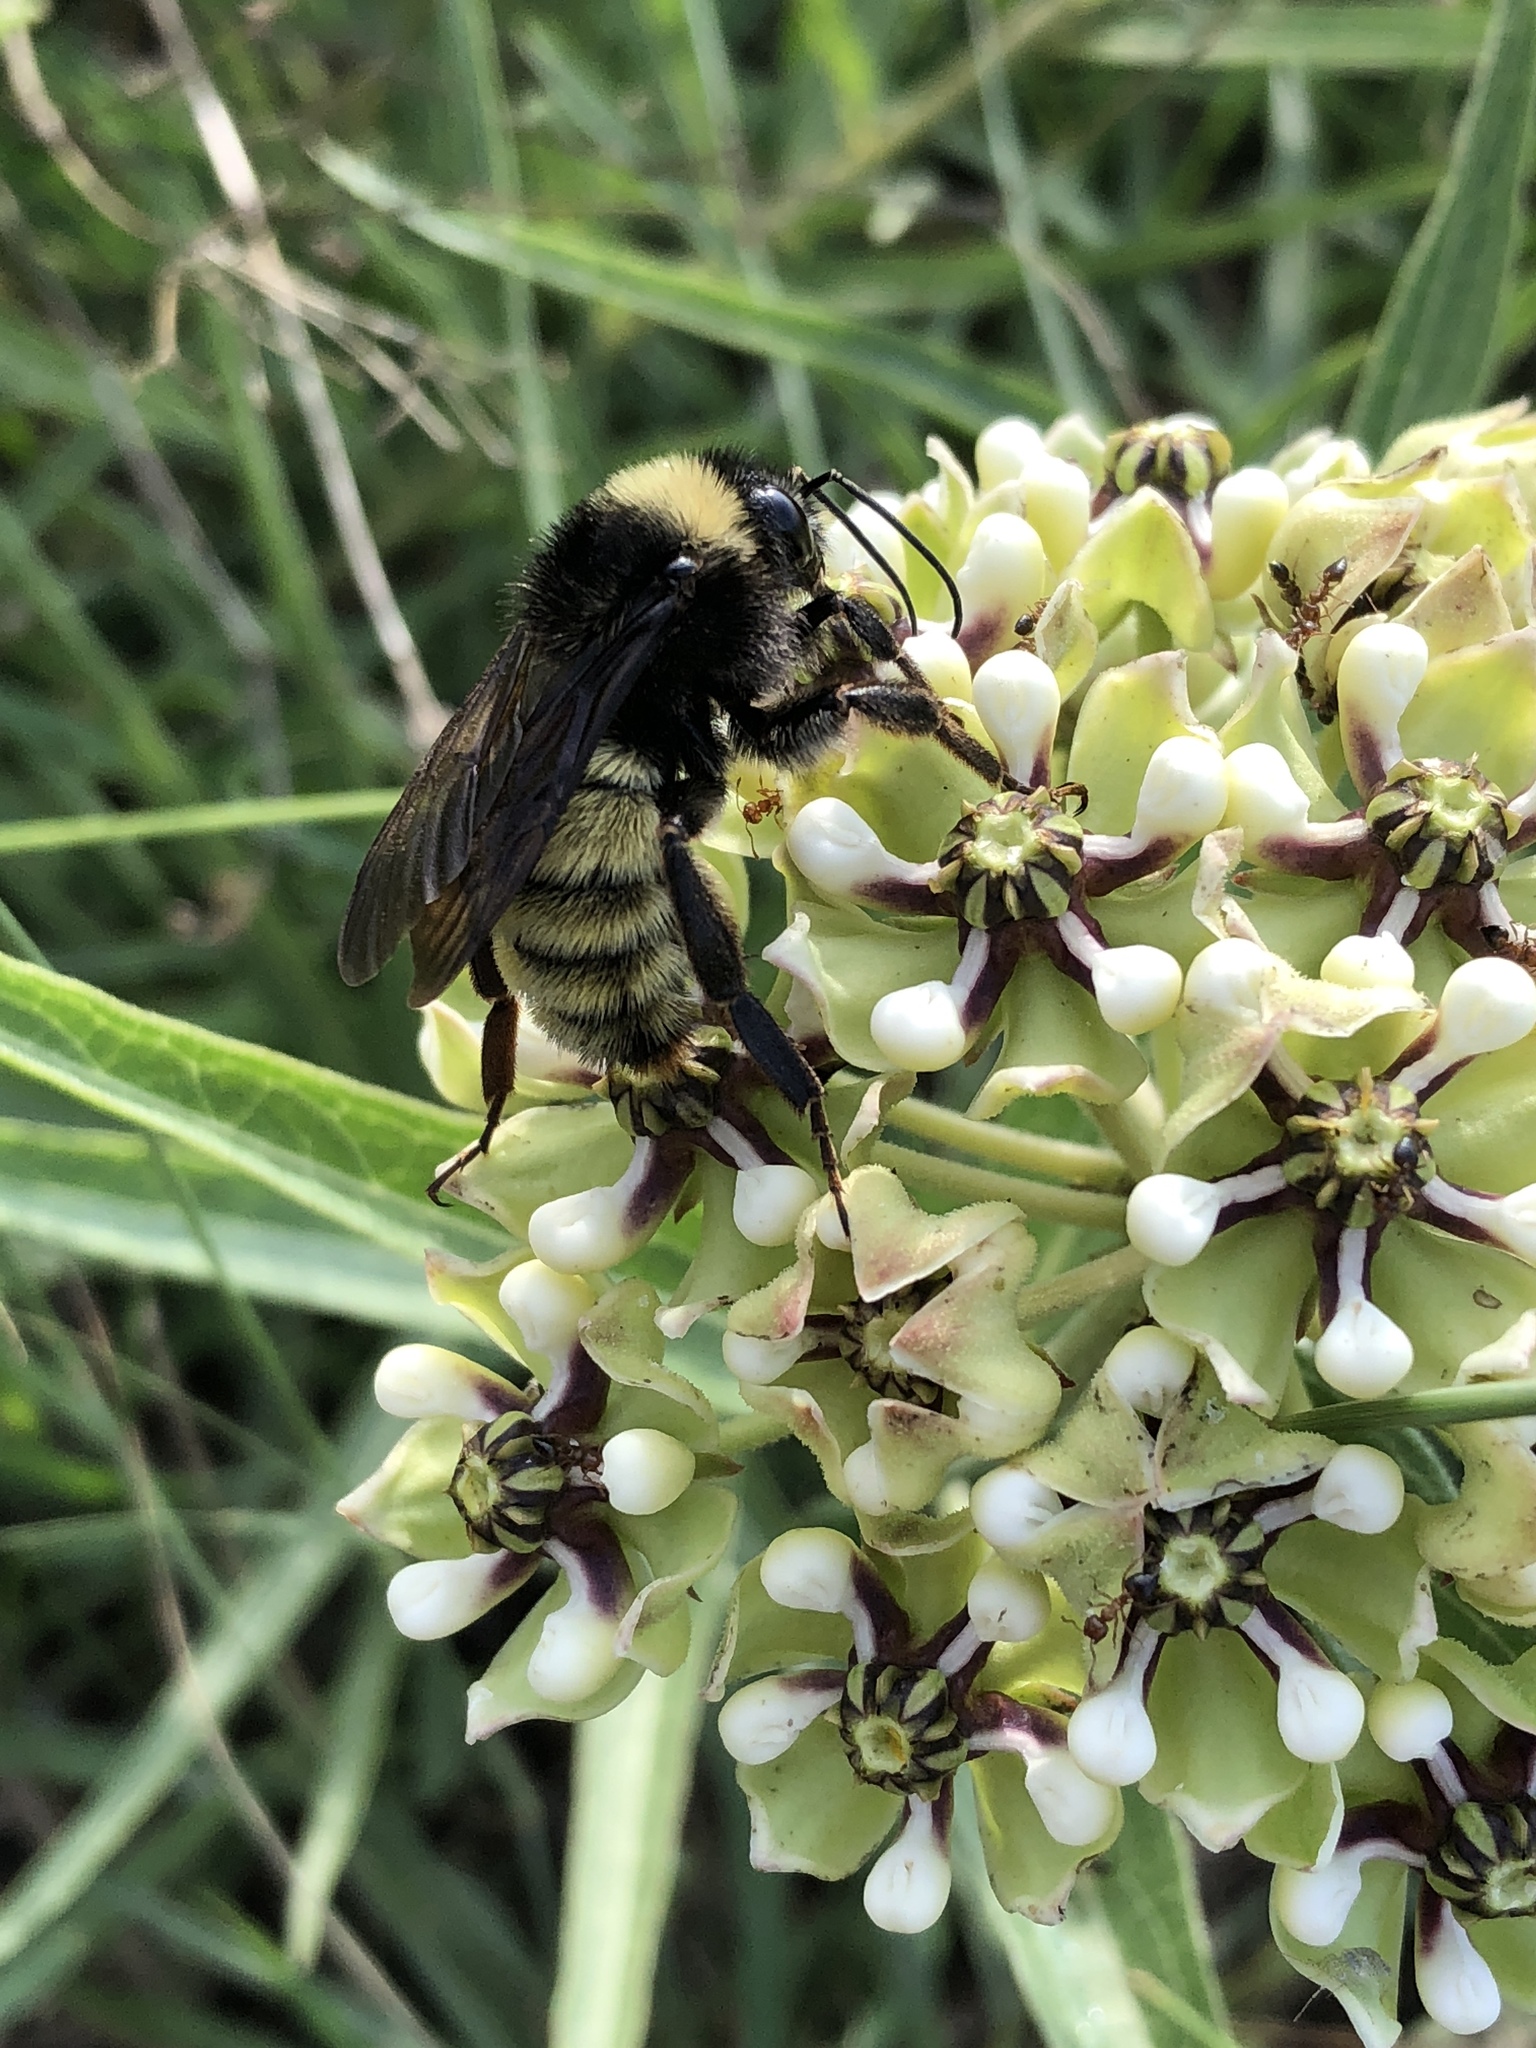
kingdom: Animalia
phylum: Arthropoda
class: Insecta
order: Hymenoptera
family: Apidae
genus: Bombus
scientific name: Bombus pensylvanicus
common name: Bumble bee
